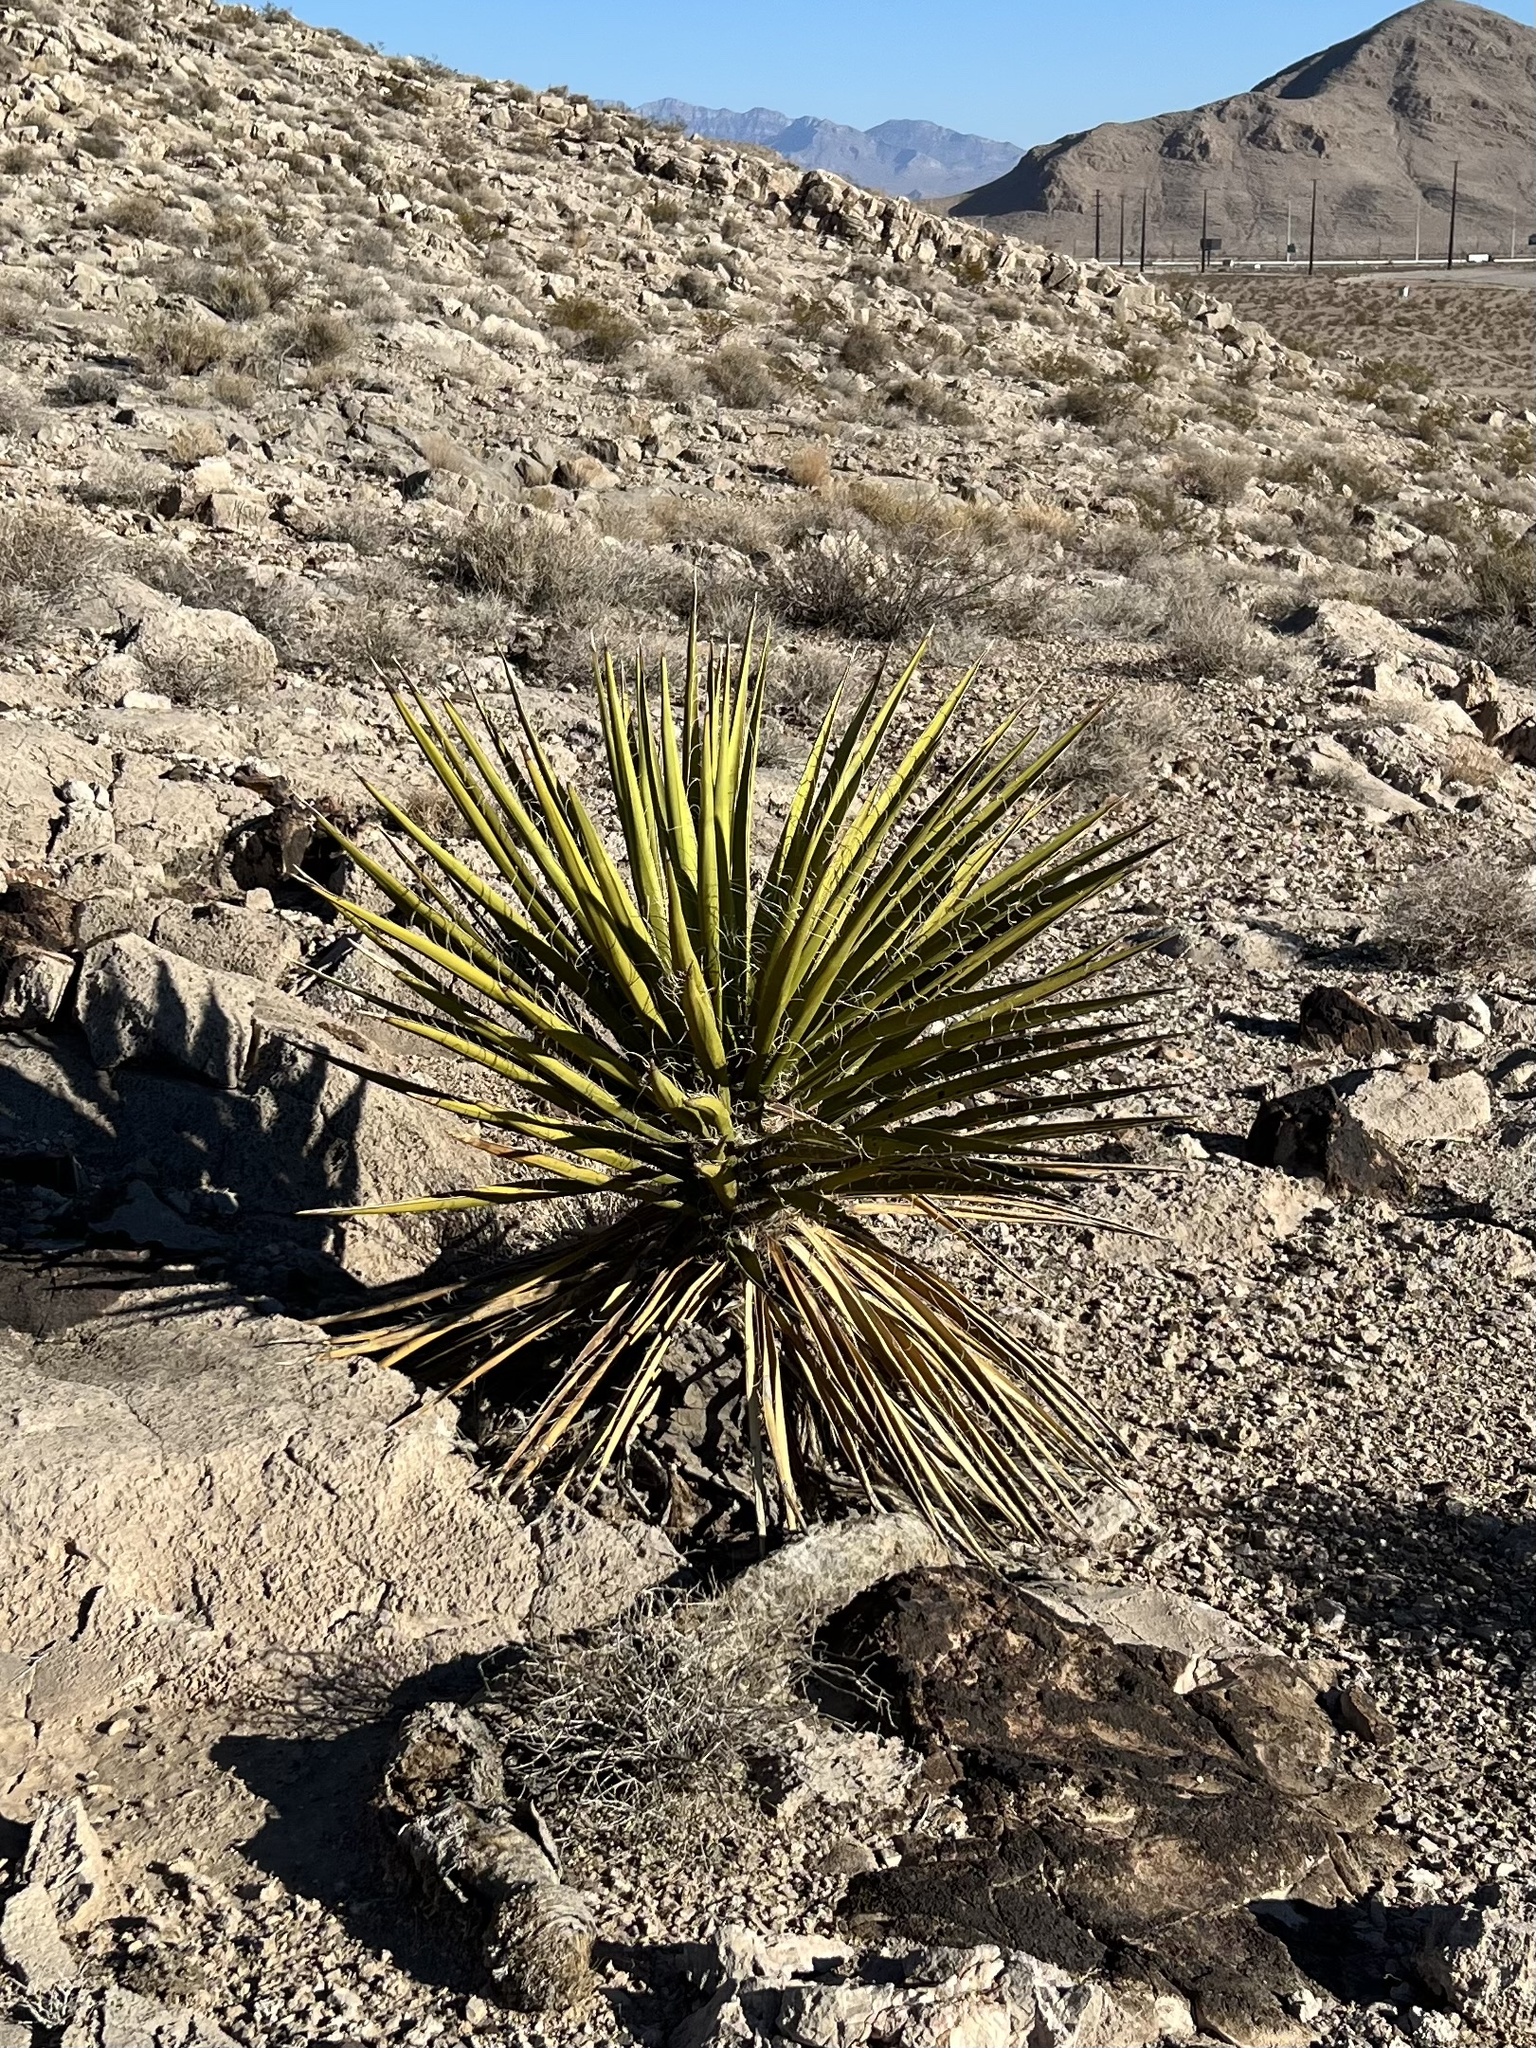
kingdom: Plantae
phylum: Tracheophyta
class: Liliopsida
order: Asparagales
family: Asparagaceae
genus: Yucca
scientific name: Yucca schidigera
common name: Mojave yucca
